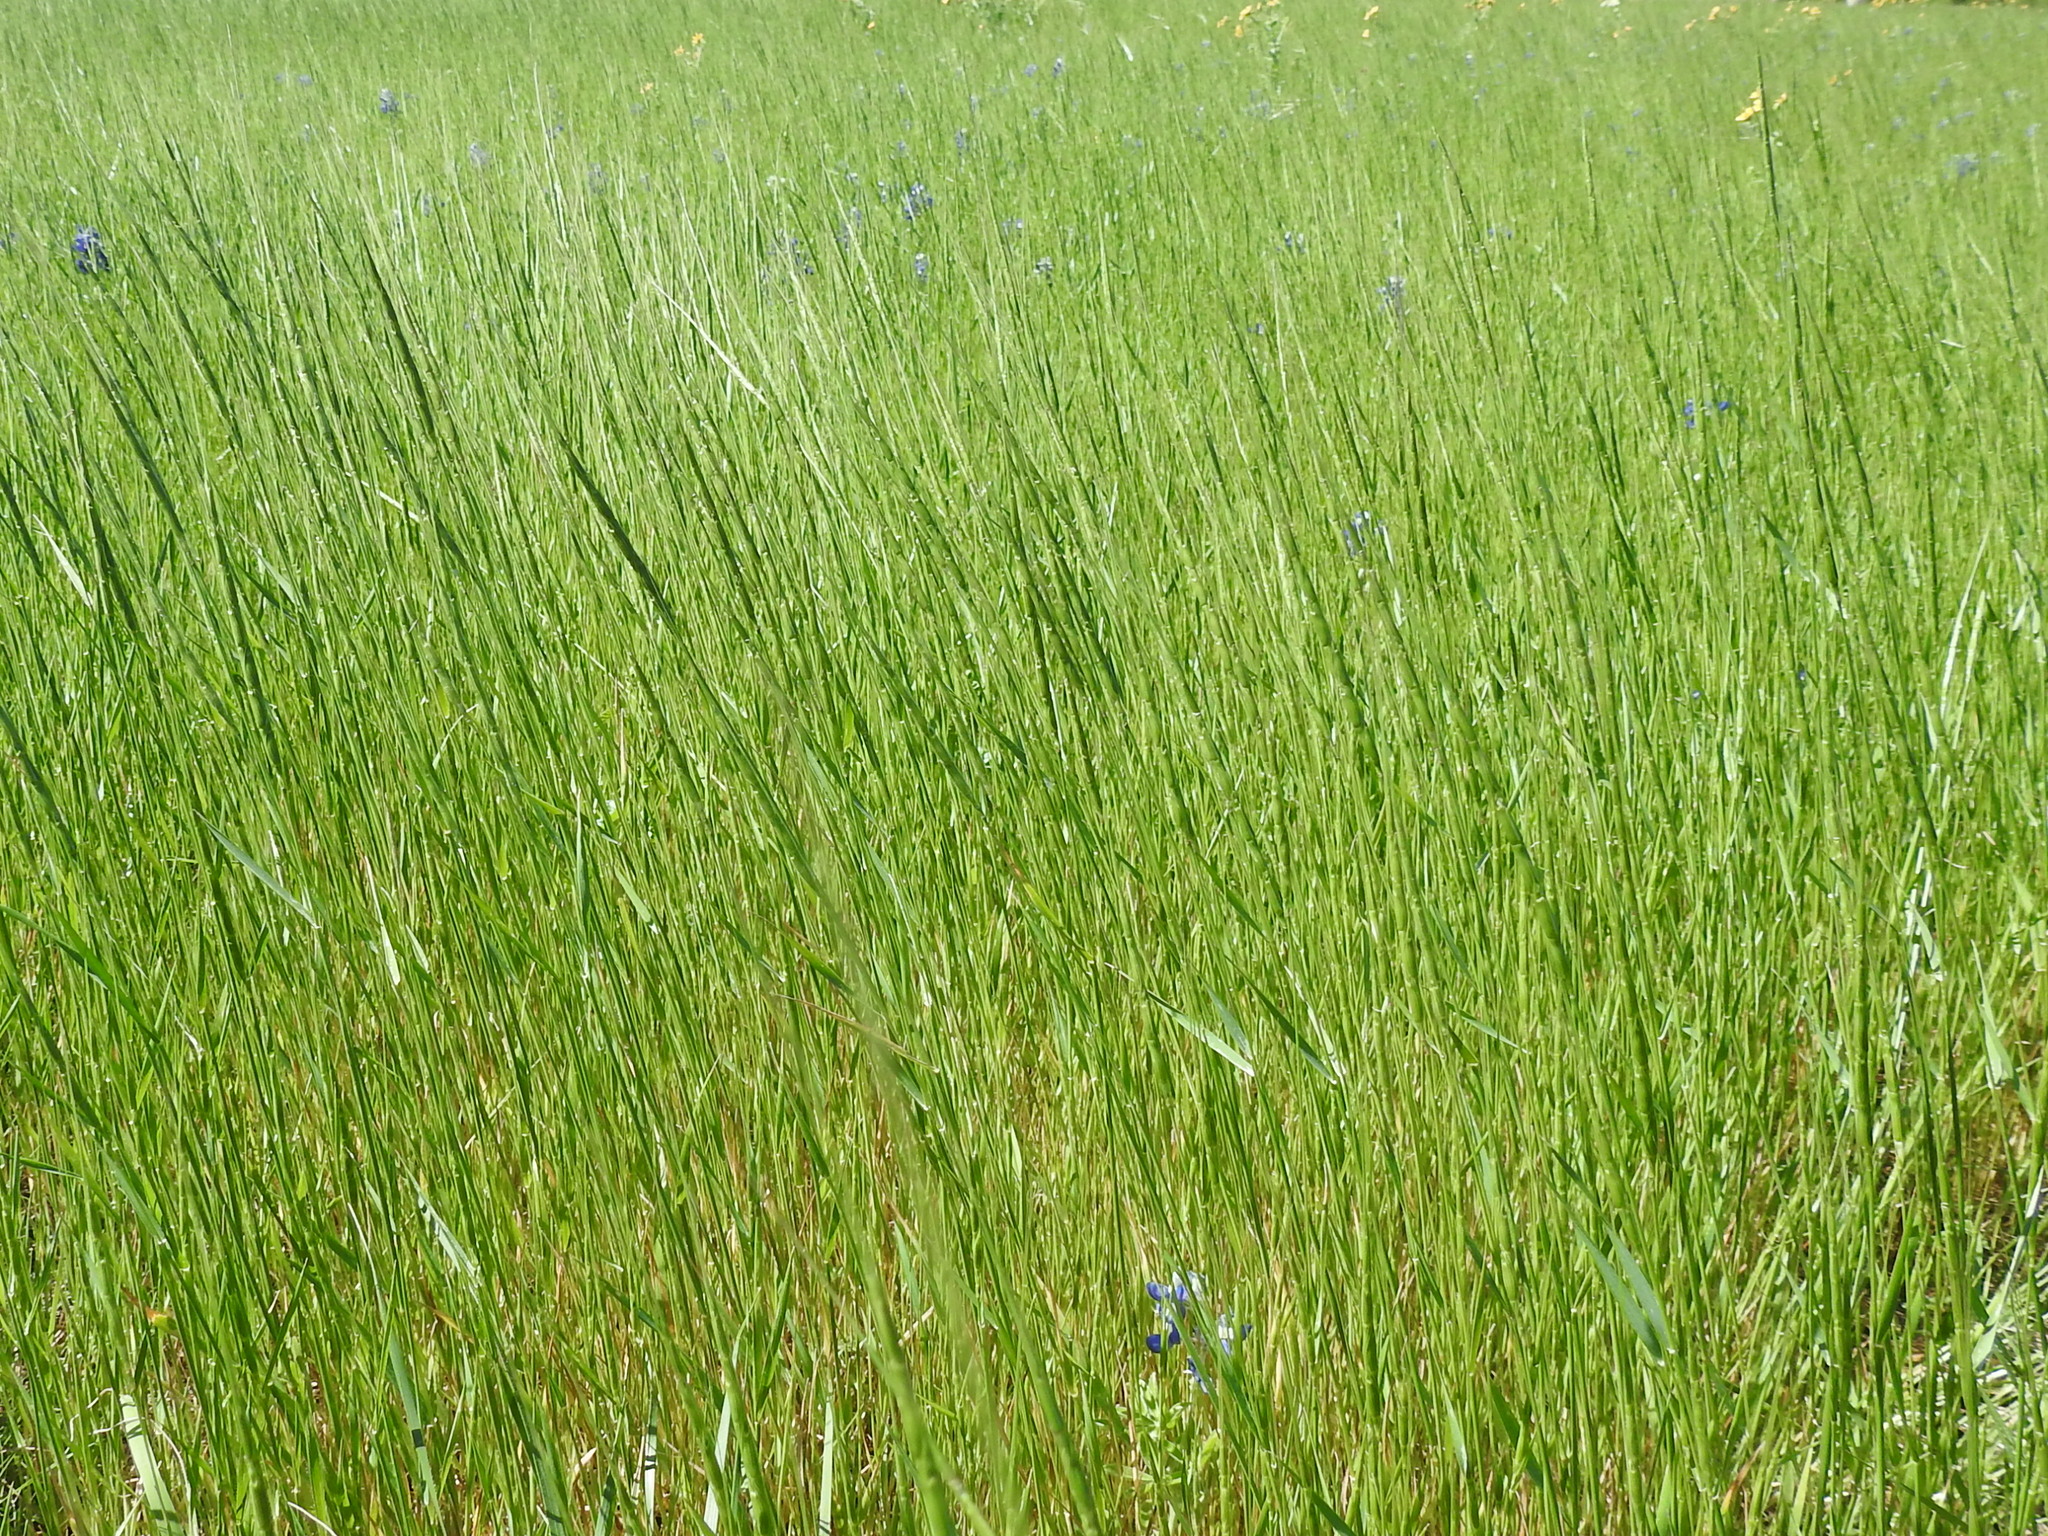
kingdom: Plantae
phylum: Tracheophyta
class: Liliopsida
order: Poales
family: Poaceae
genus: Aegilops
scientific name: Aegilops cylindrica
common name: Jointed goatgrass
